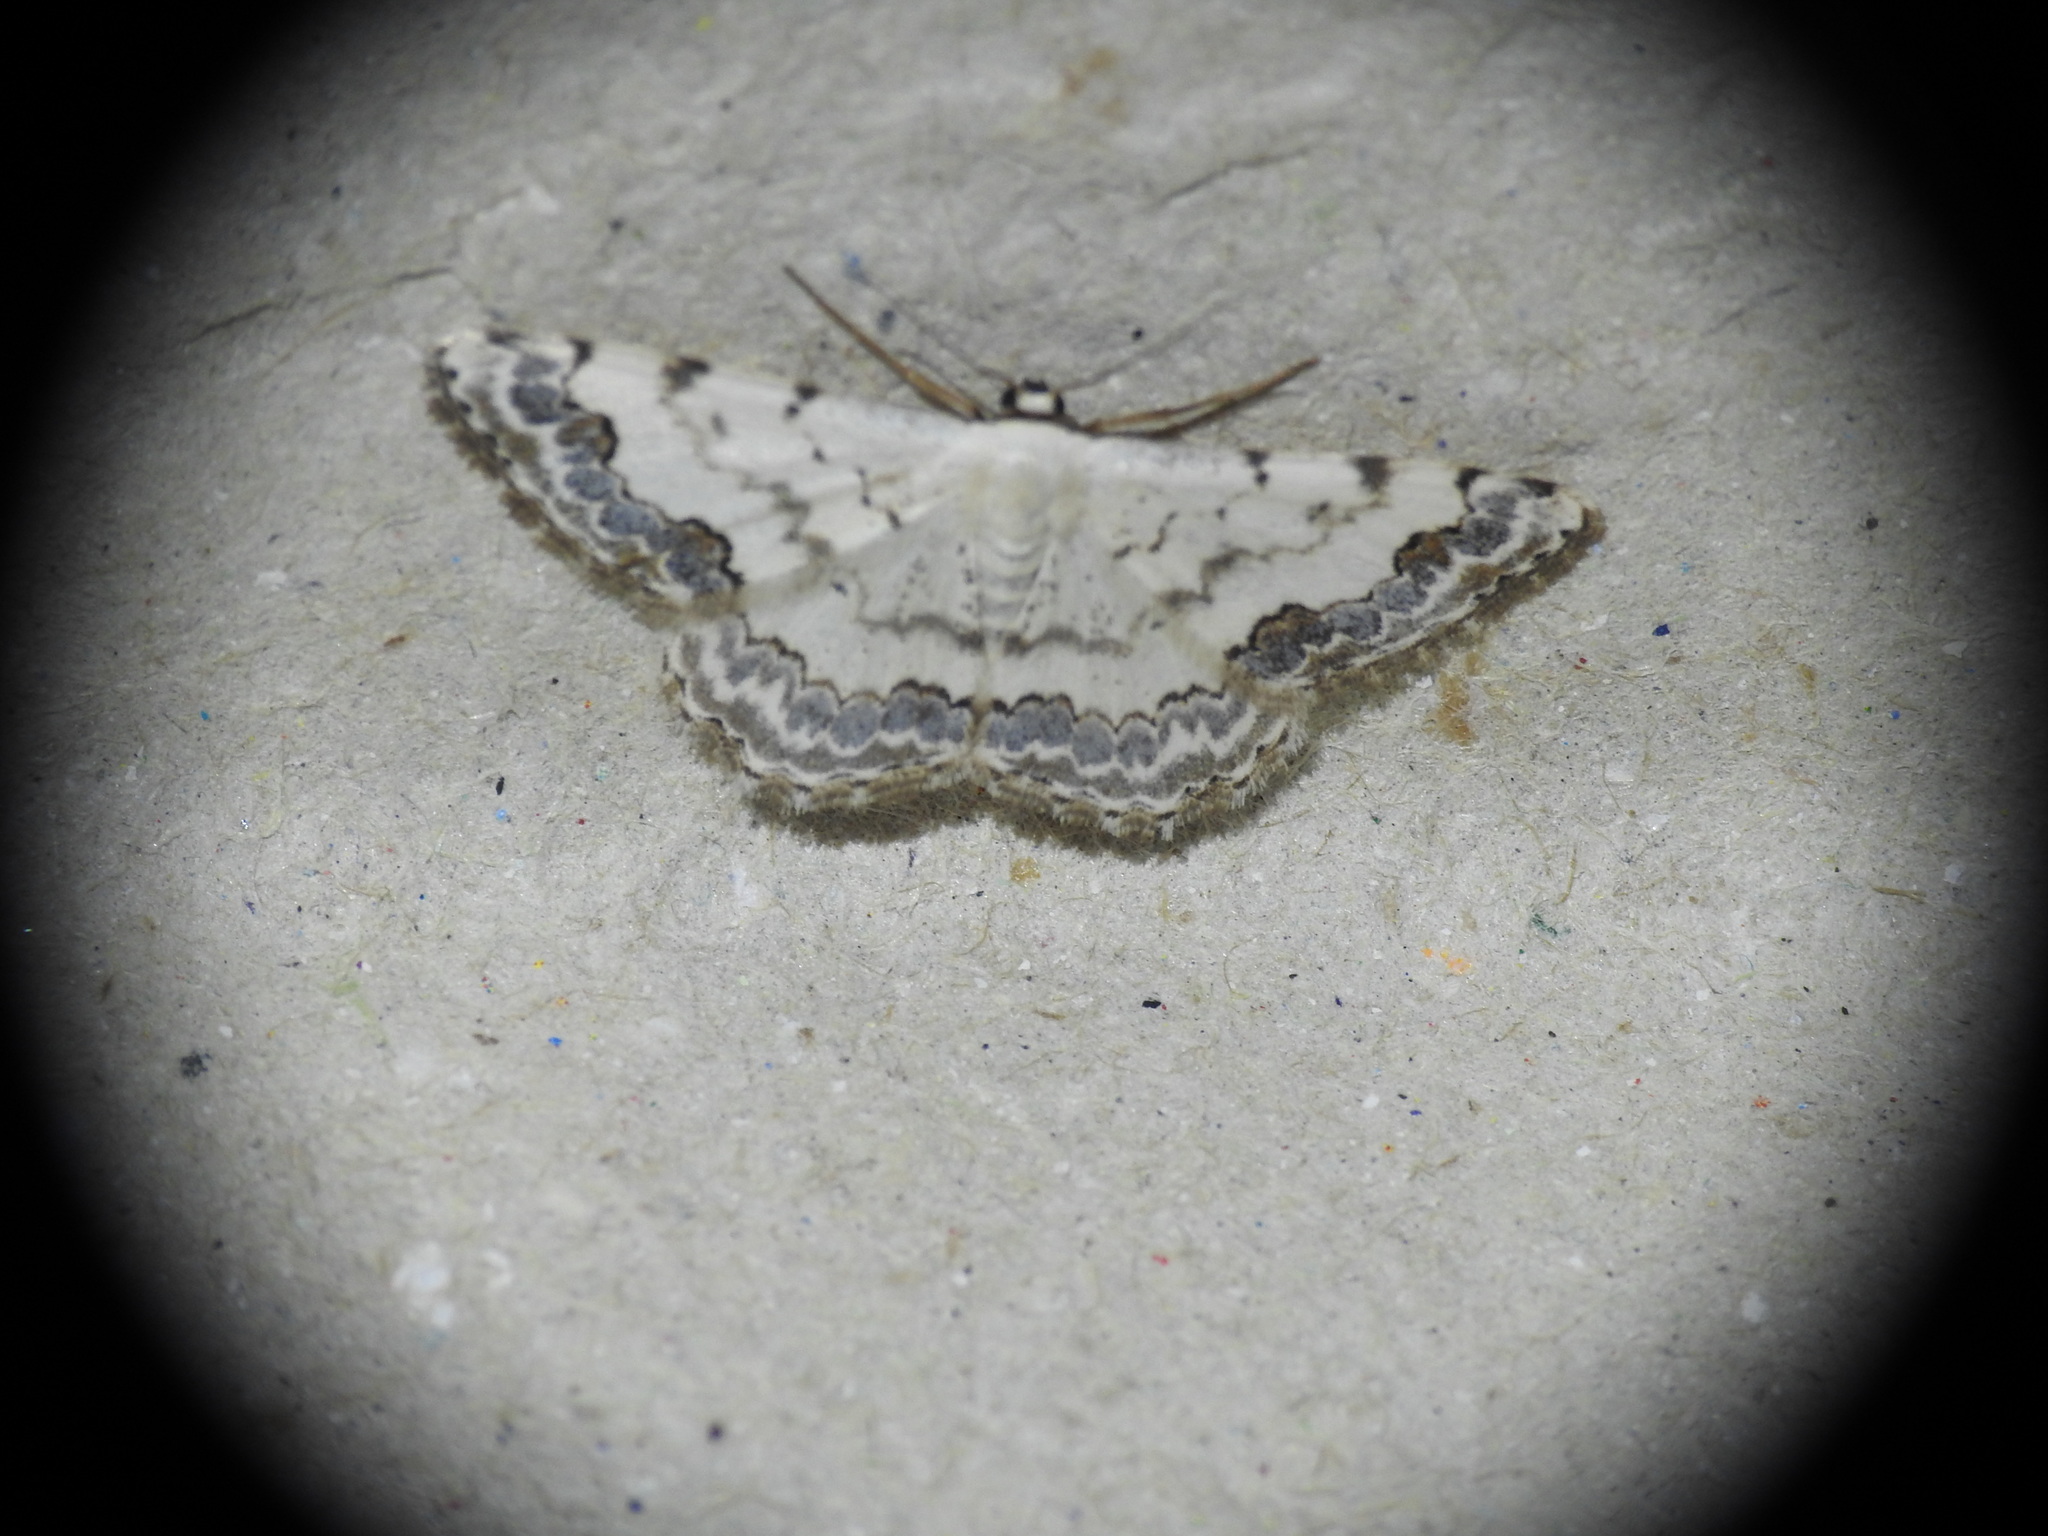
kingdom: Animalia
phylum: Arthropoda
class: Insecta
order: Lepidoptera
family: Geometridae
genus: Scopula
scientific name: Scopula decorata
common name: Middle lace border
